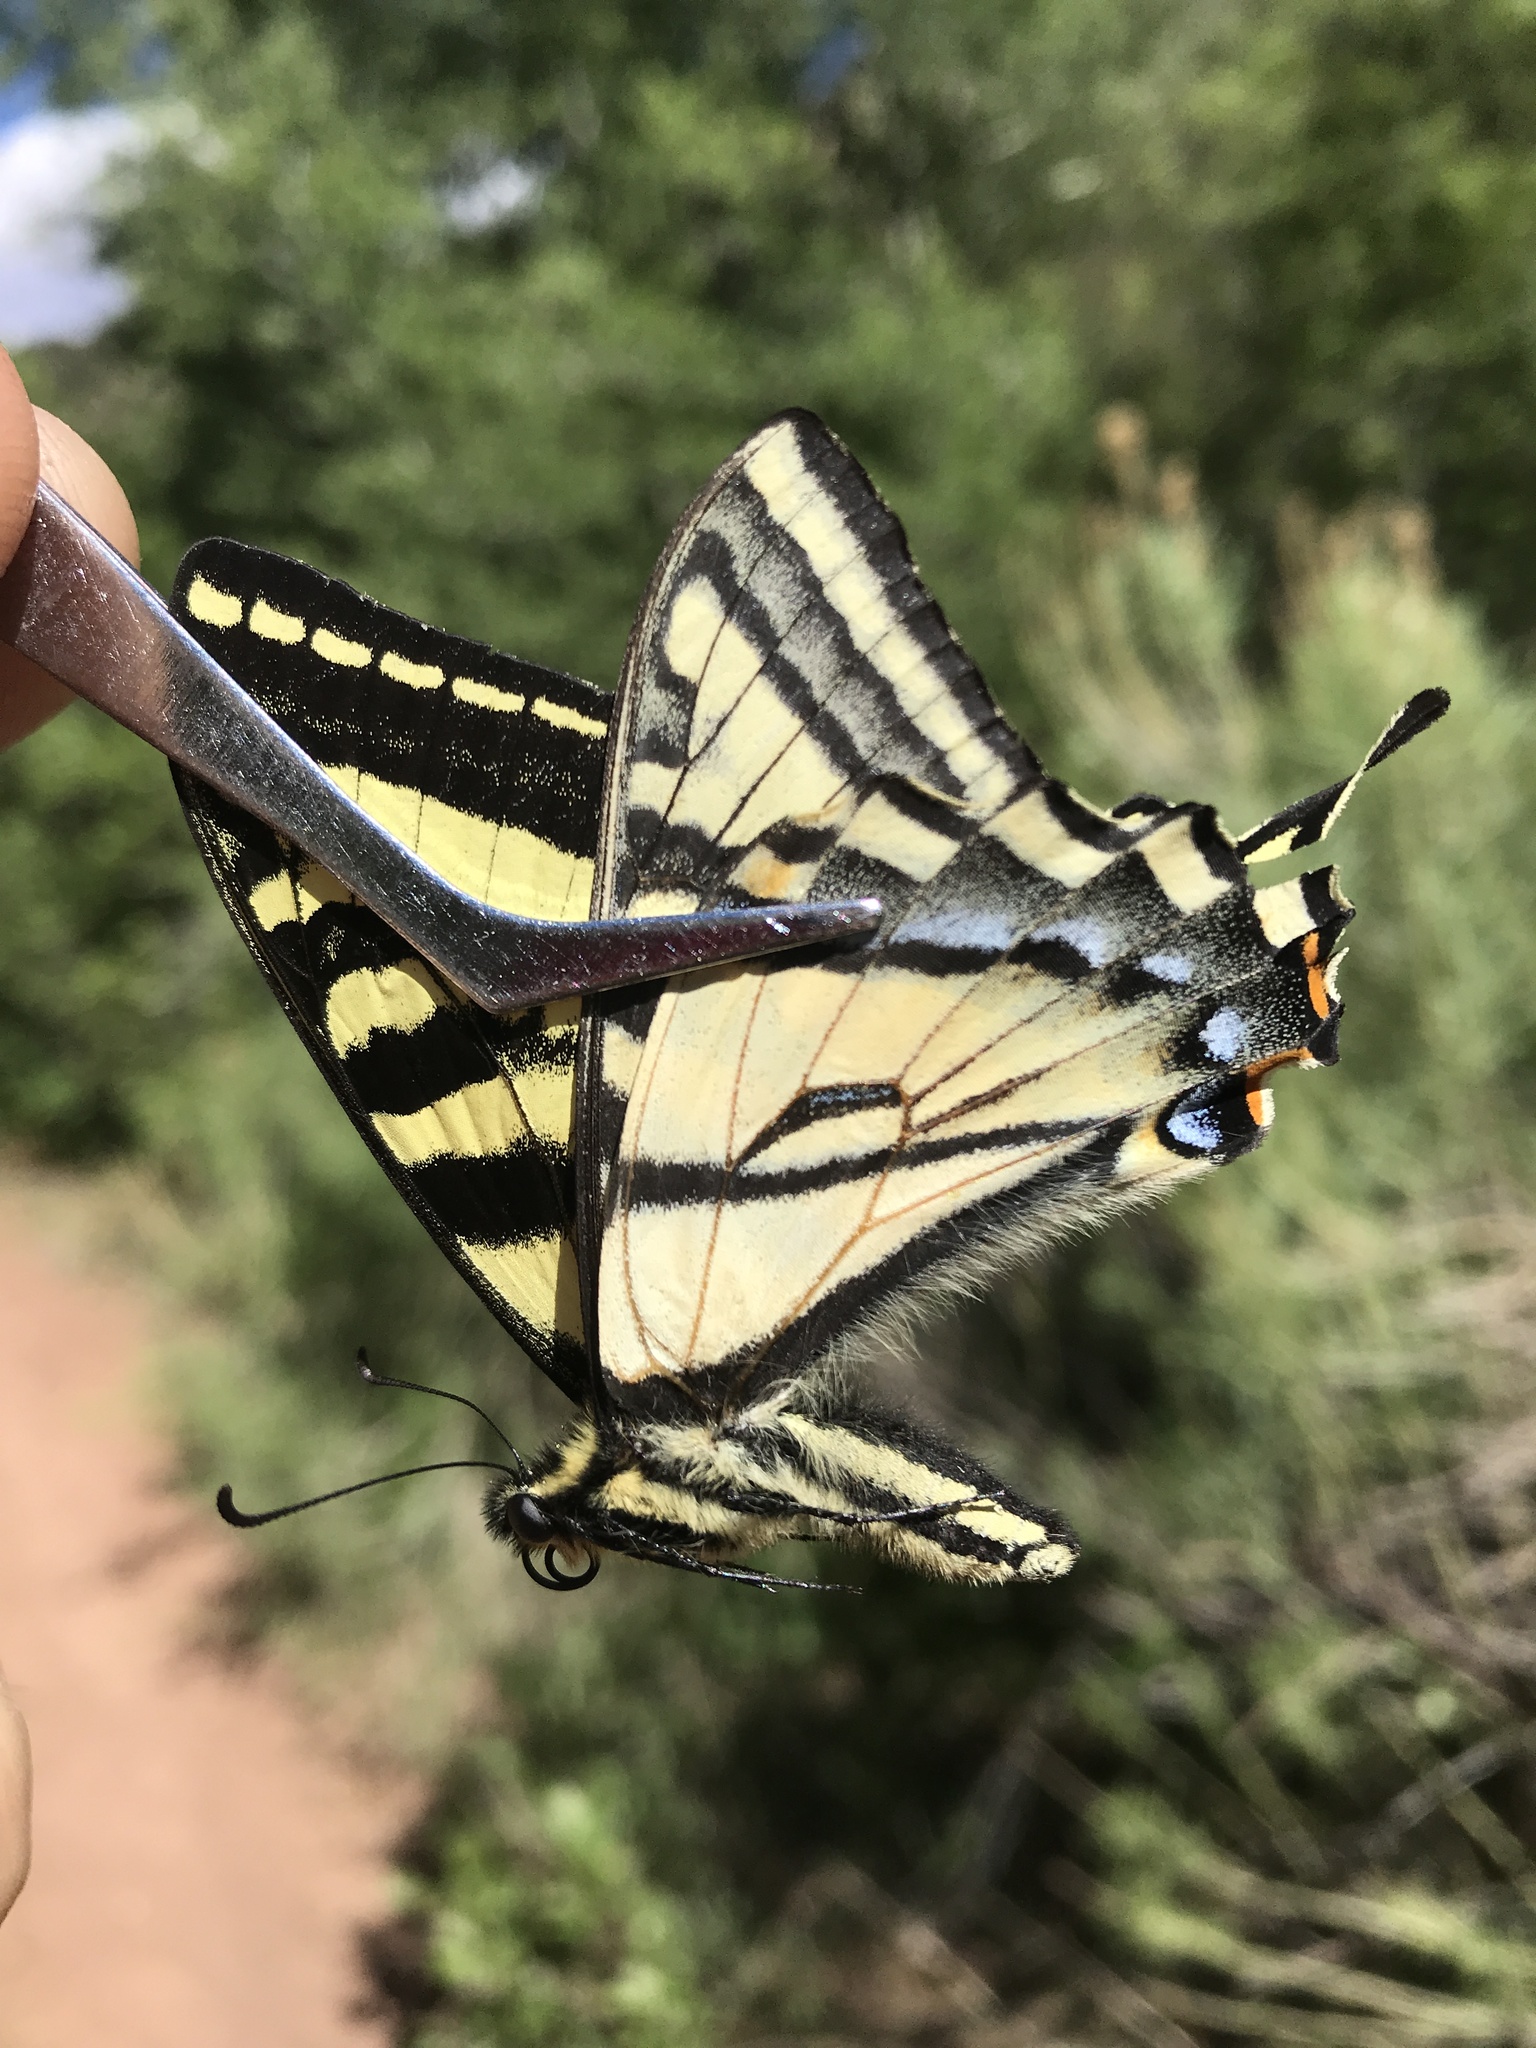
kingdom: Animalia
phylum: Arthropoda
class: Insecta
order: Lepidoptera
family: Papilionidae
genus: Papilio
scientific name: Papilio rutulus
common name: Western tiger swallowtail
